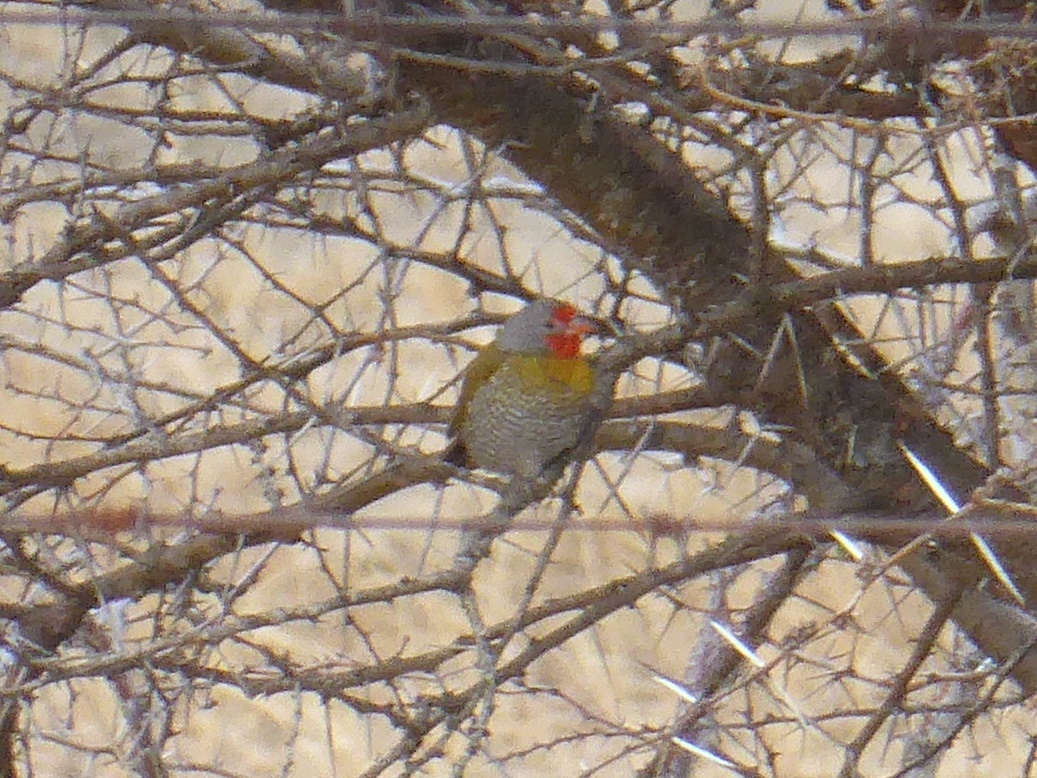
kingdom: Animalia
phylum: Chordata
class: Aves
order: Passeriformes
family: Estrildidae
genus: Pytilia
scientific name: Pytilia melba
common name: Green-winged pytilia
